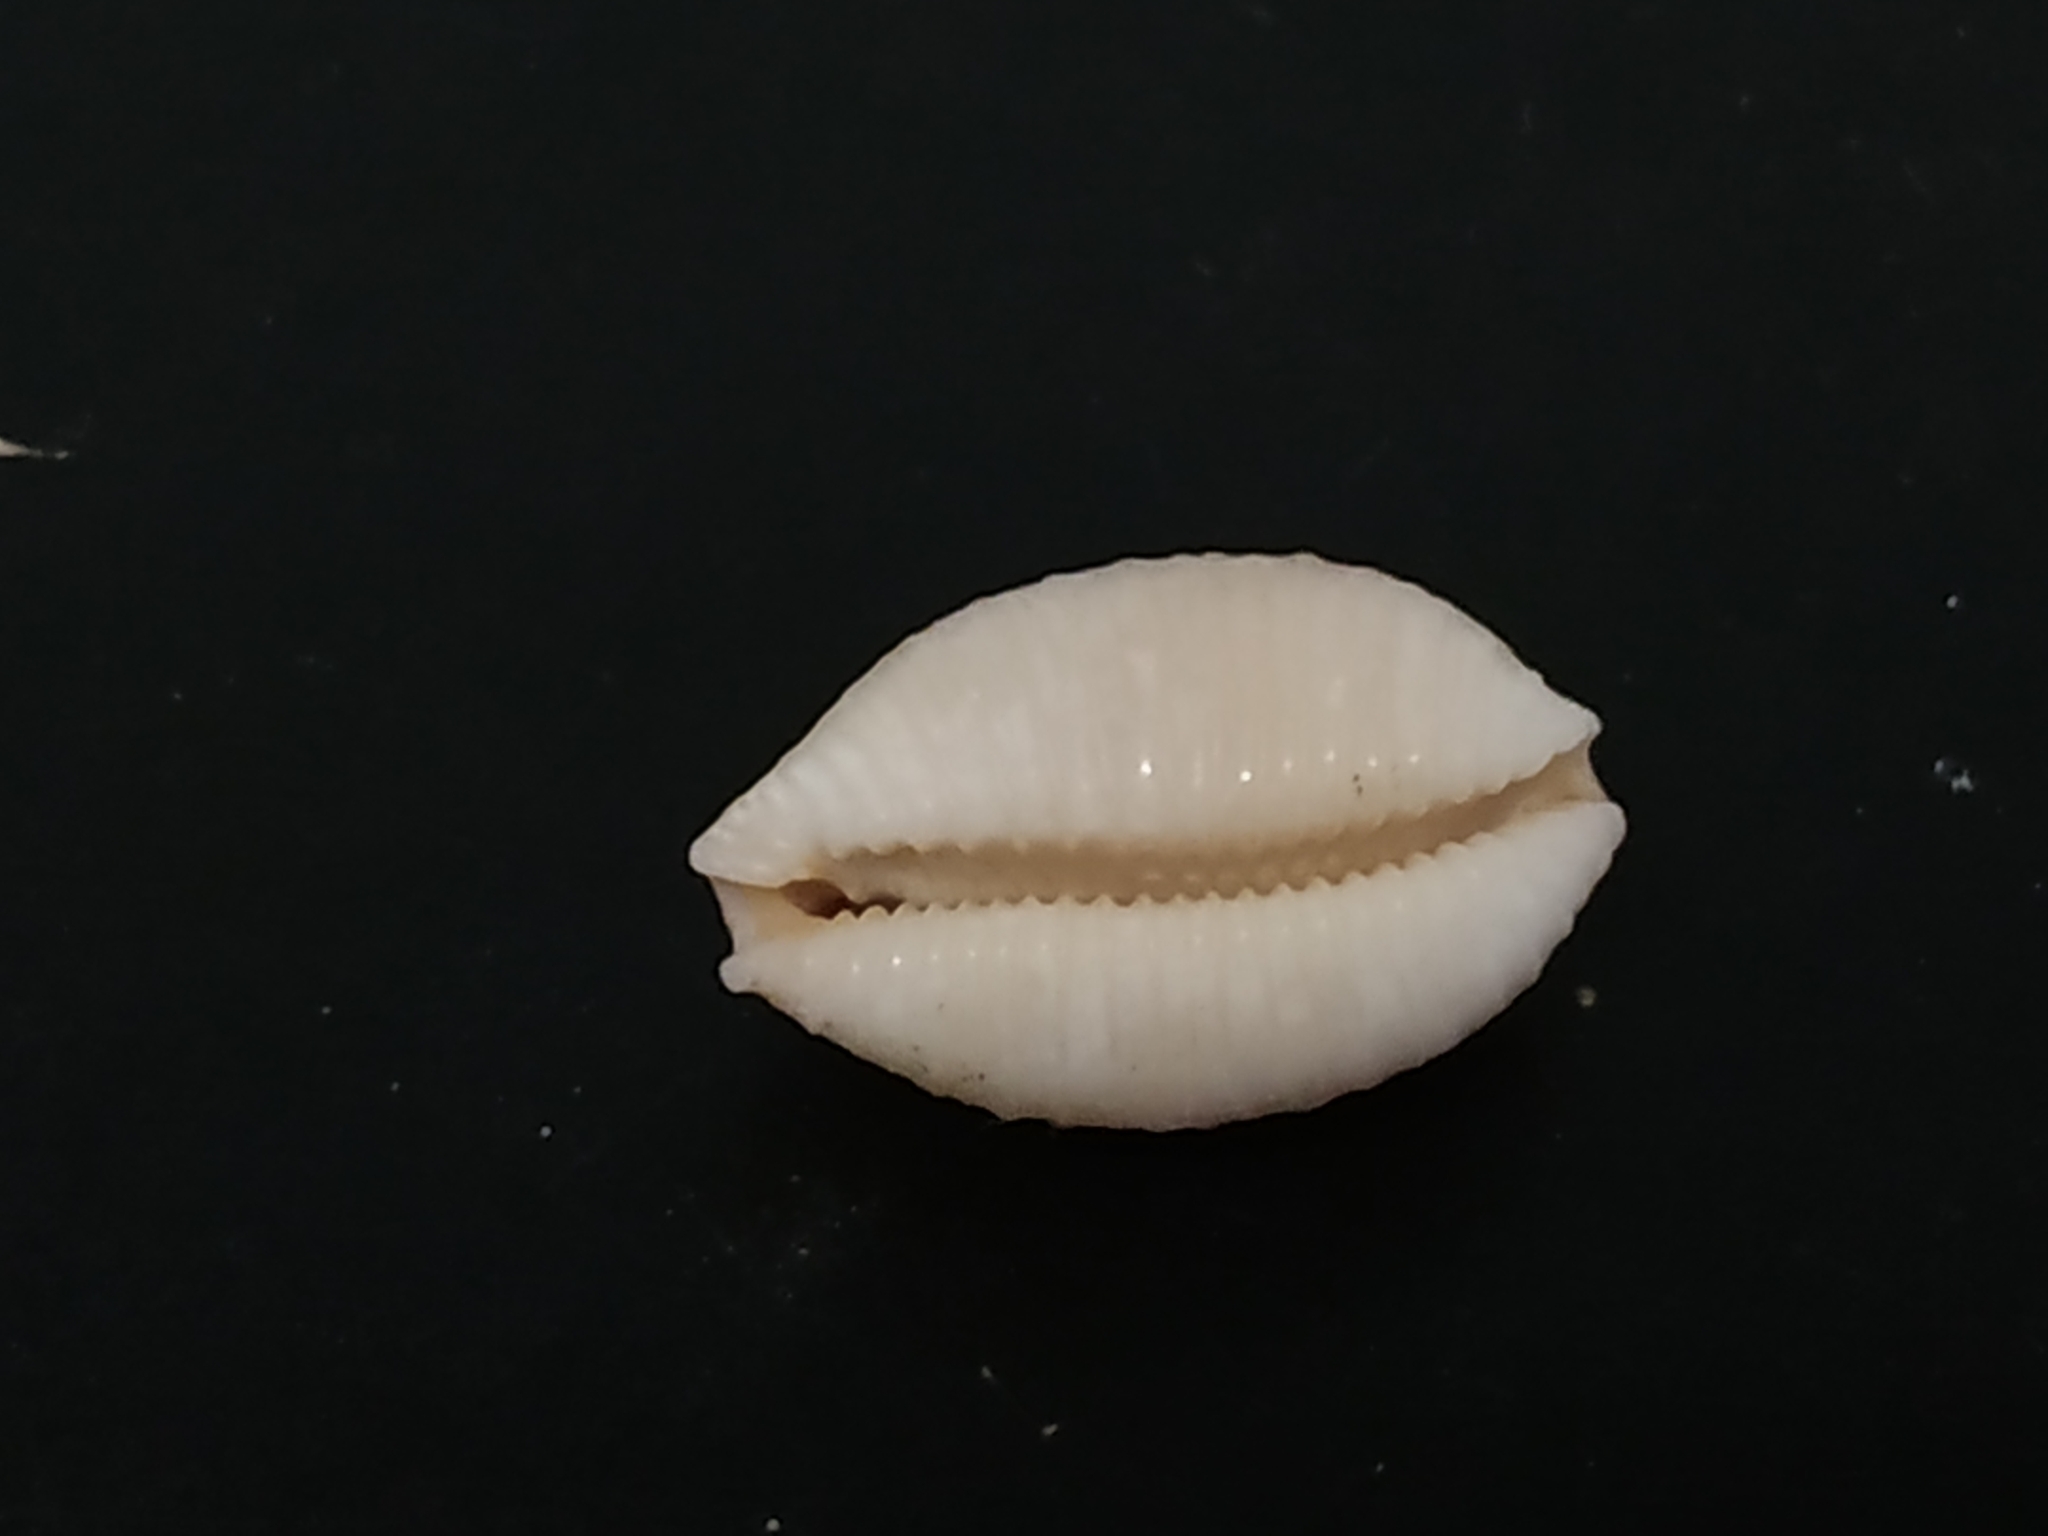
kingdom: Animalia
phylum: Mollusca
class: Gastropoda
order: Littorinimorpha
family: Cypraeidae
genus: Nucleolaria
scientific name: Nucleolaria nucleus
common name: Kernel cowry
